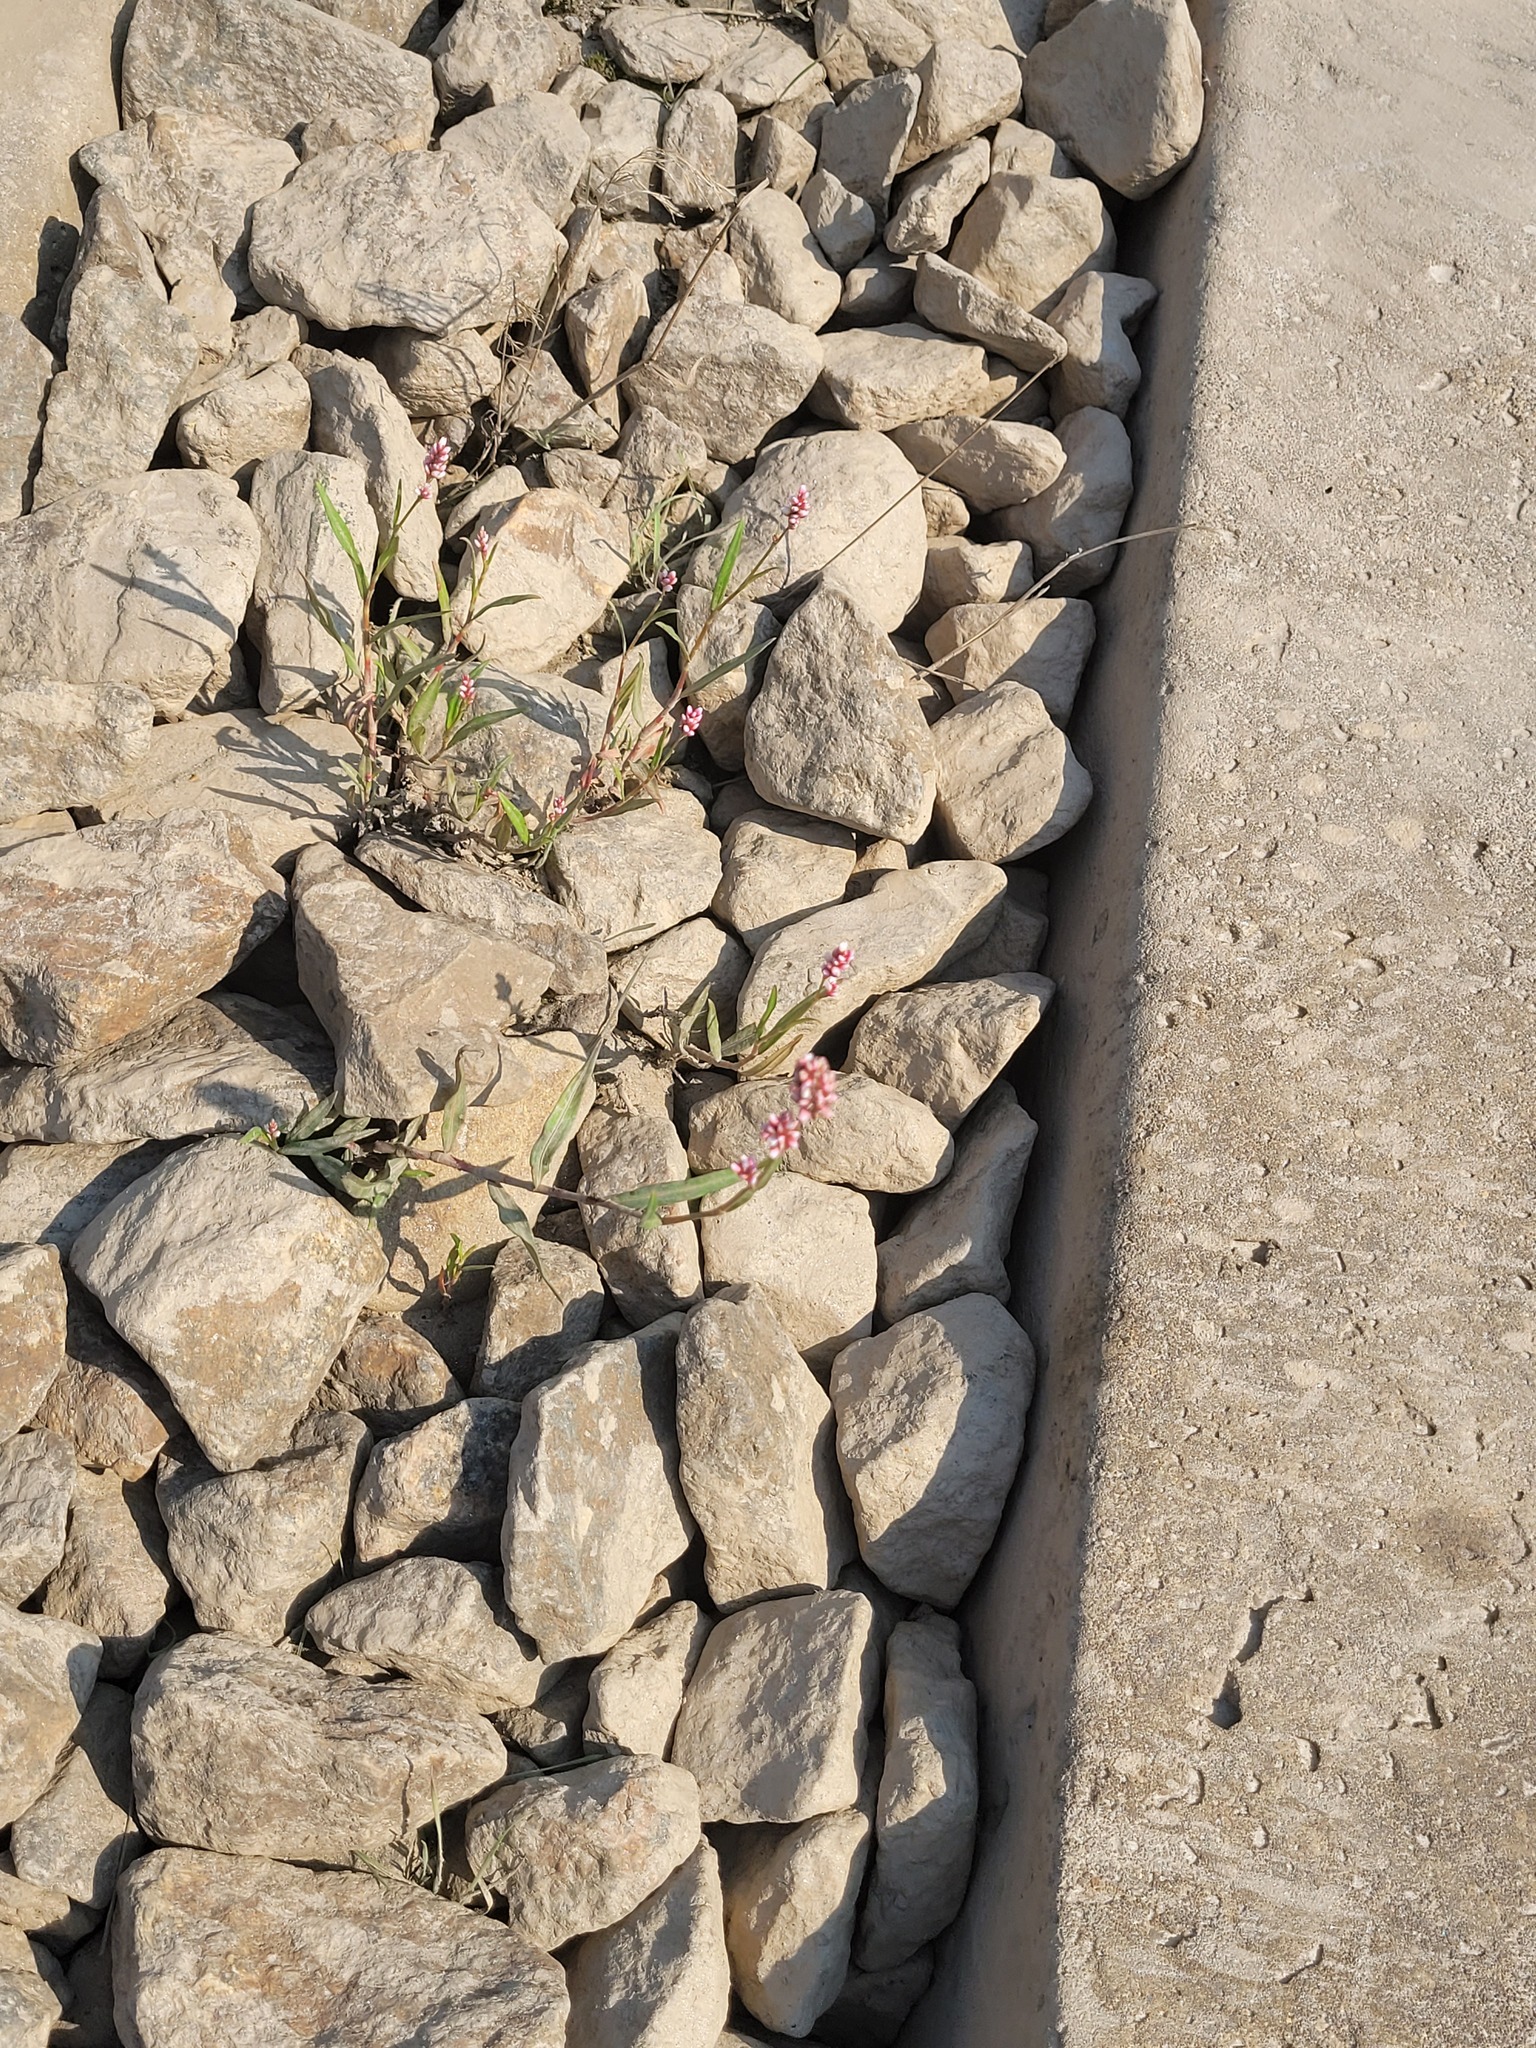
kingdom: Plantae
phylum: Tracheophyta
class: Magnoliopsida
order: Caryophyllales
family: Polygonaceae
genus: Persicaria
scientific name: Persicaria maculosa
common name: Redshank
